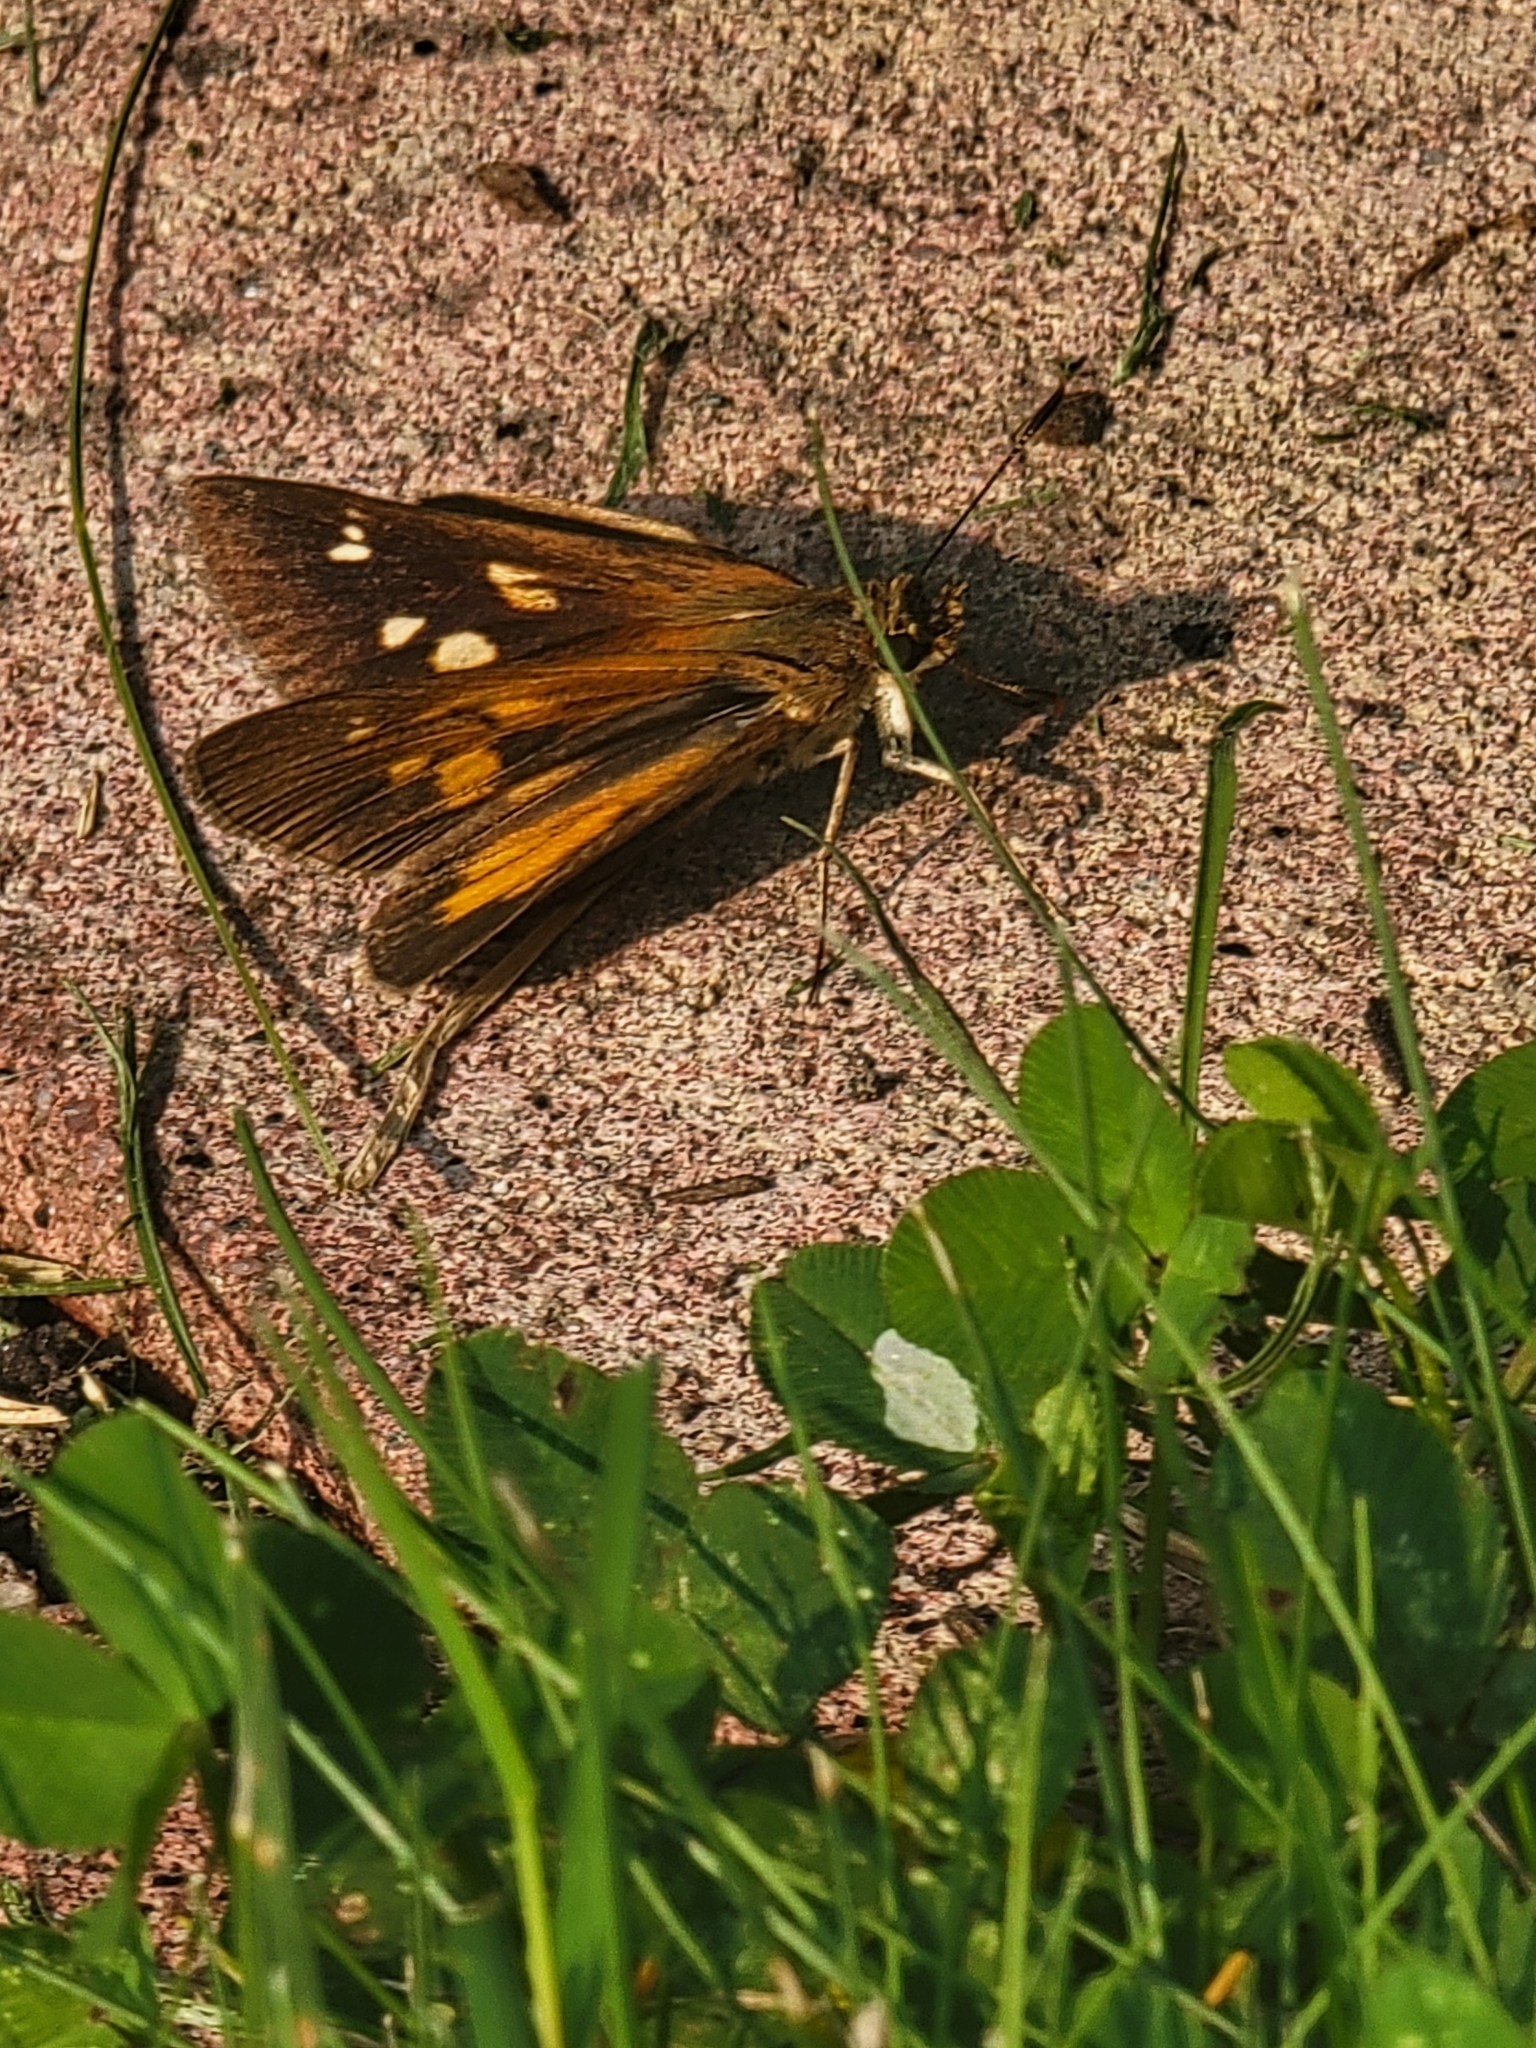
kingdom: Animalia
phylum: Arthropoda
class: Insecta
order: Lepidoptera
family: Hesperiidae
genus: Poanes
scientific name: Poanes viator
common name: Broad-winged skipper
